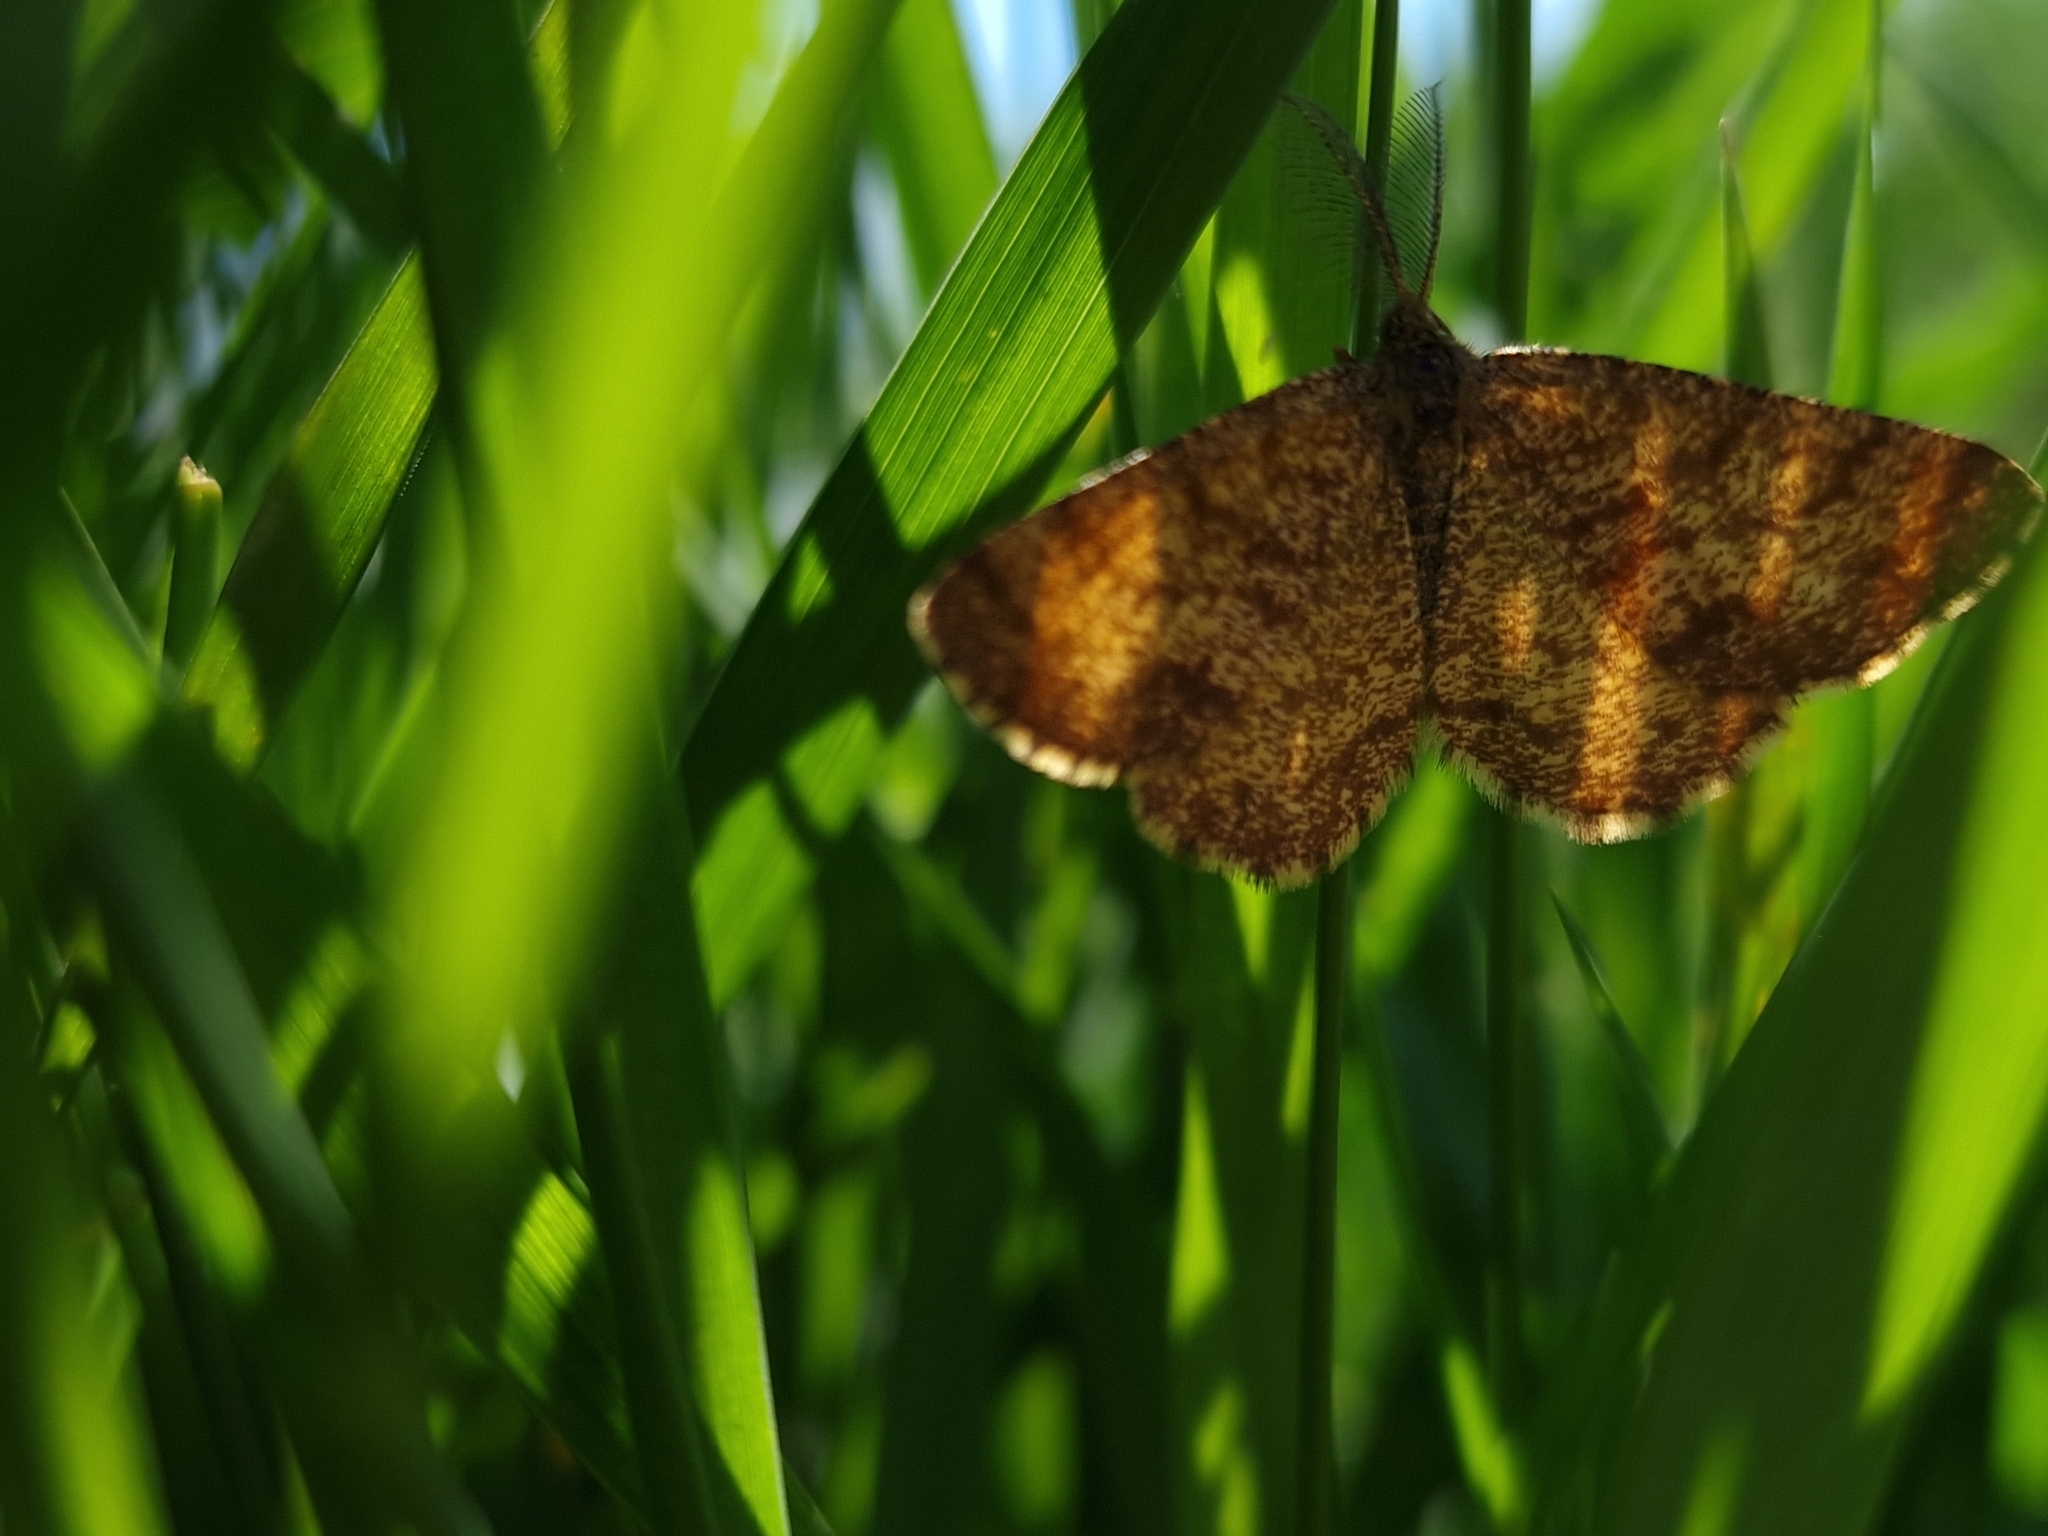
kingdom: Animalia
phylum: Arthropoda
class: Insecta
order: Lepidoptera
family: Geometridae
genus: Ematurga
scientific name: Ematurga atomaria
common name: Common heath
